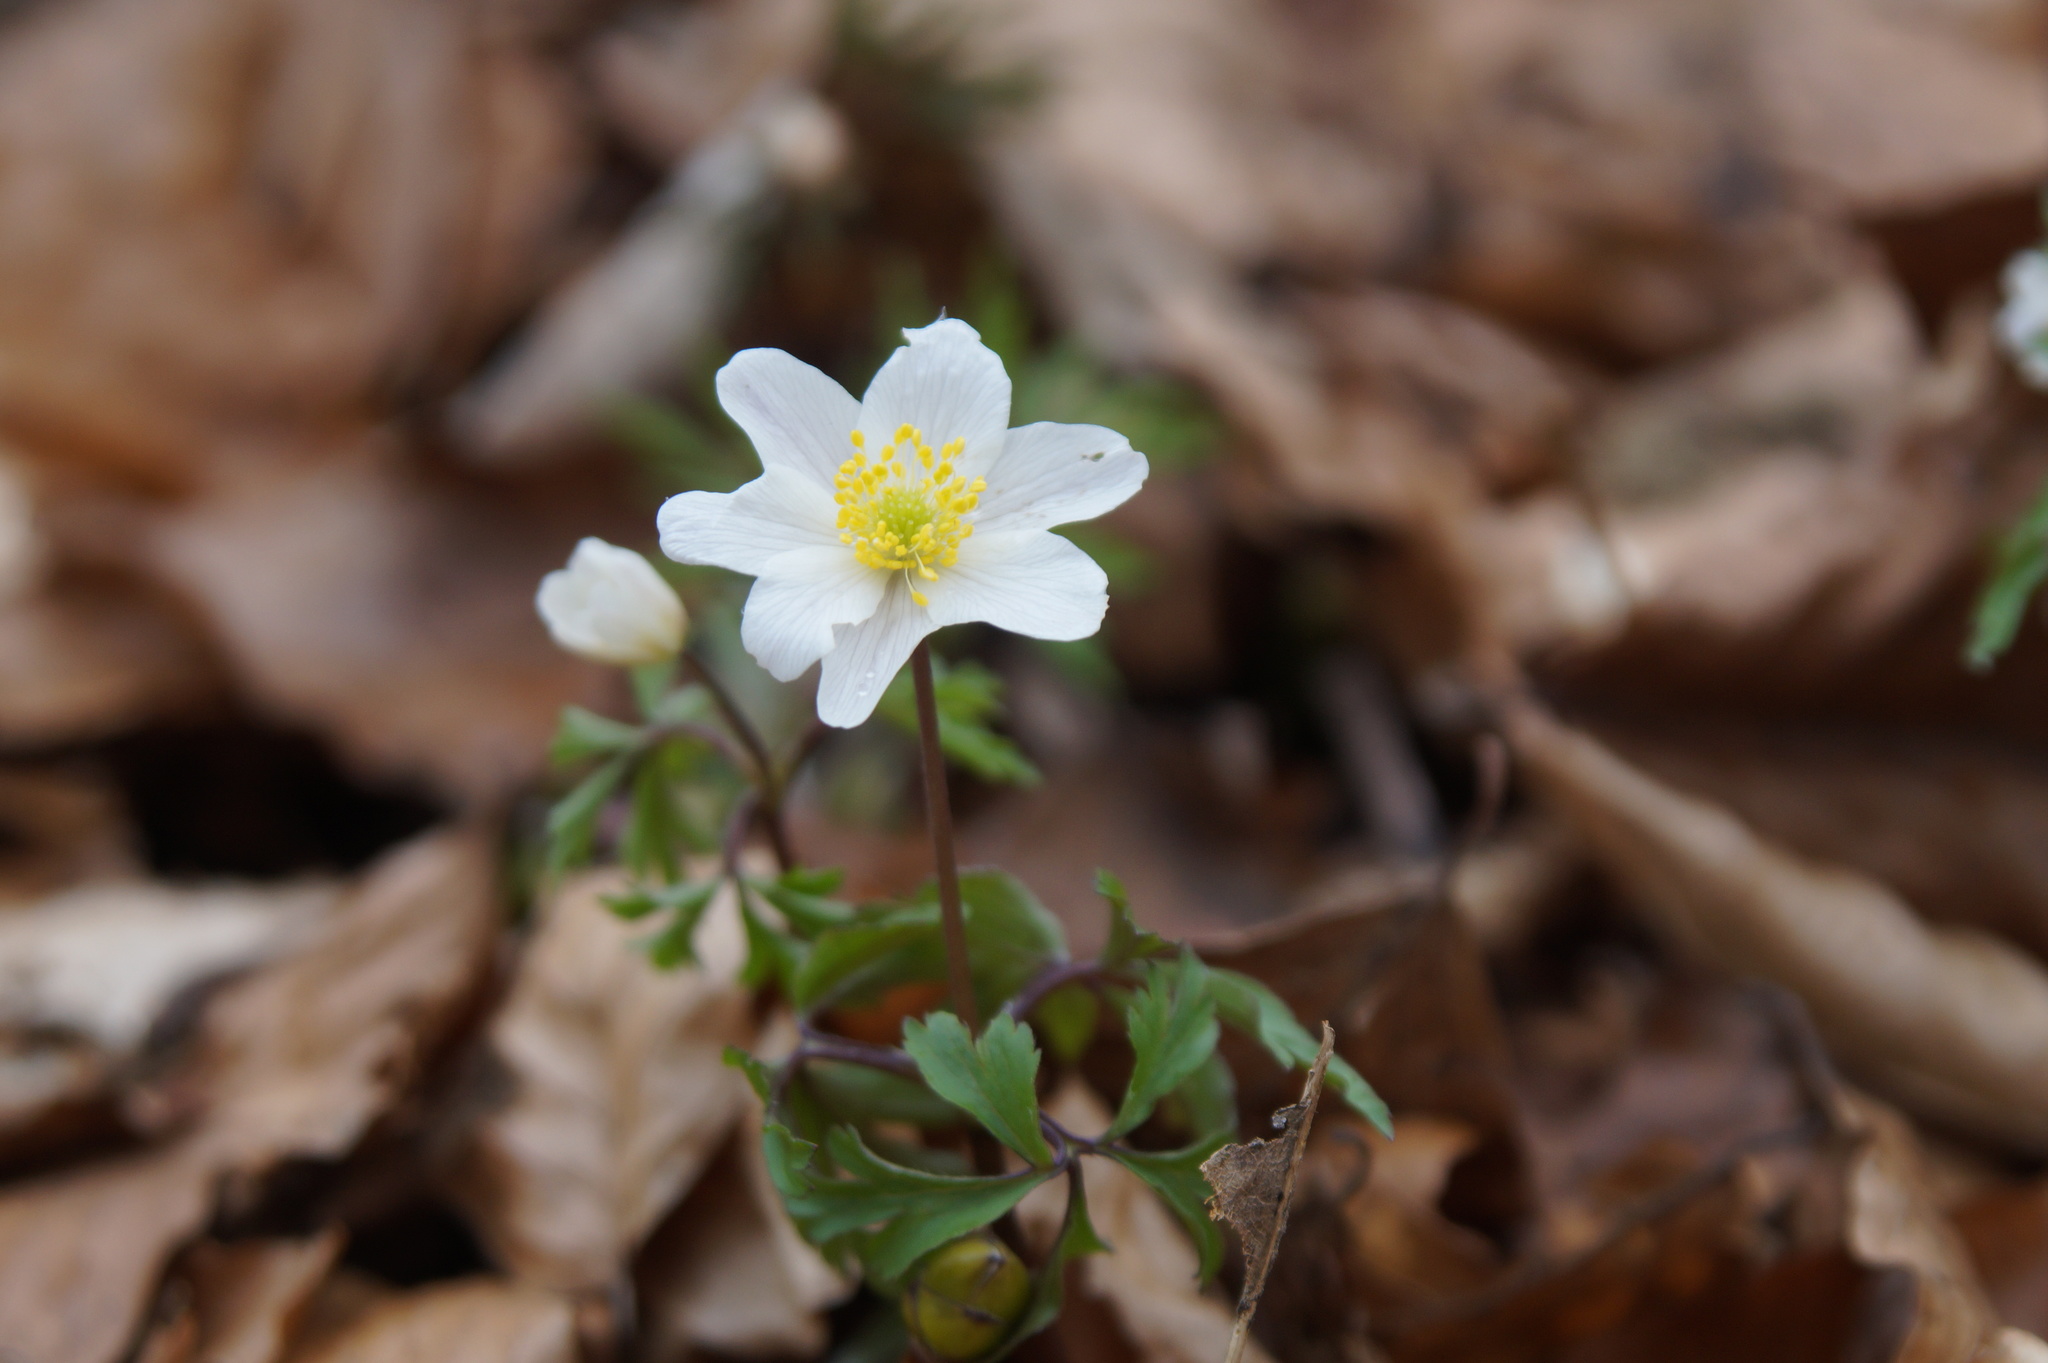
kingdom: Plantae
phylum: Tracheophyta
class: Magnoliopsida
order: Ranunculales
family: Ranunculaceae
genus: Anemone
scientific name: Anemone nemorosa
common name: Wood anemone
